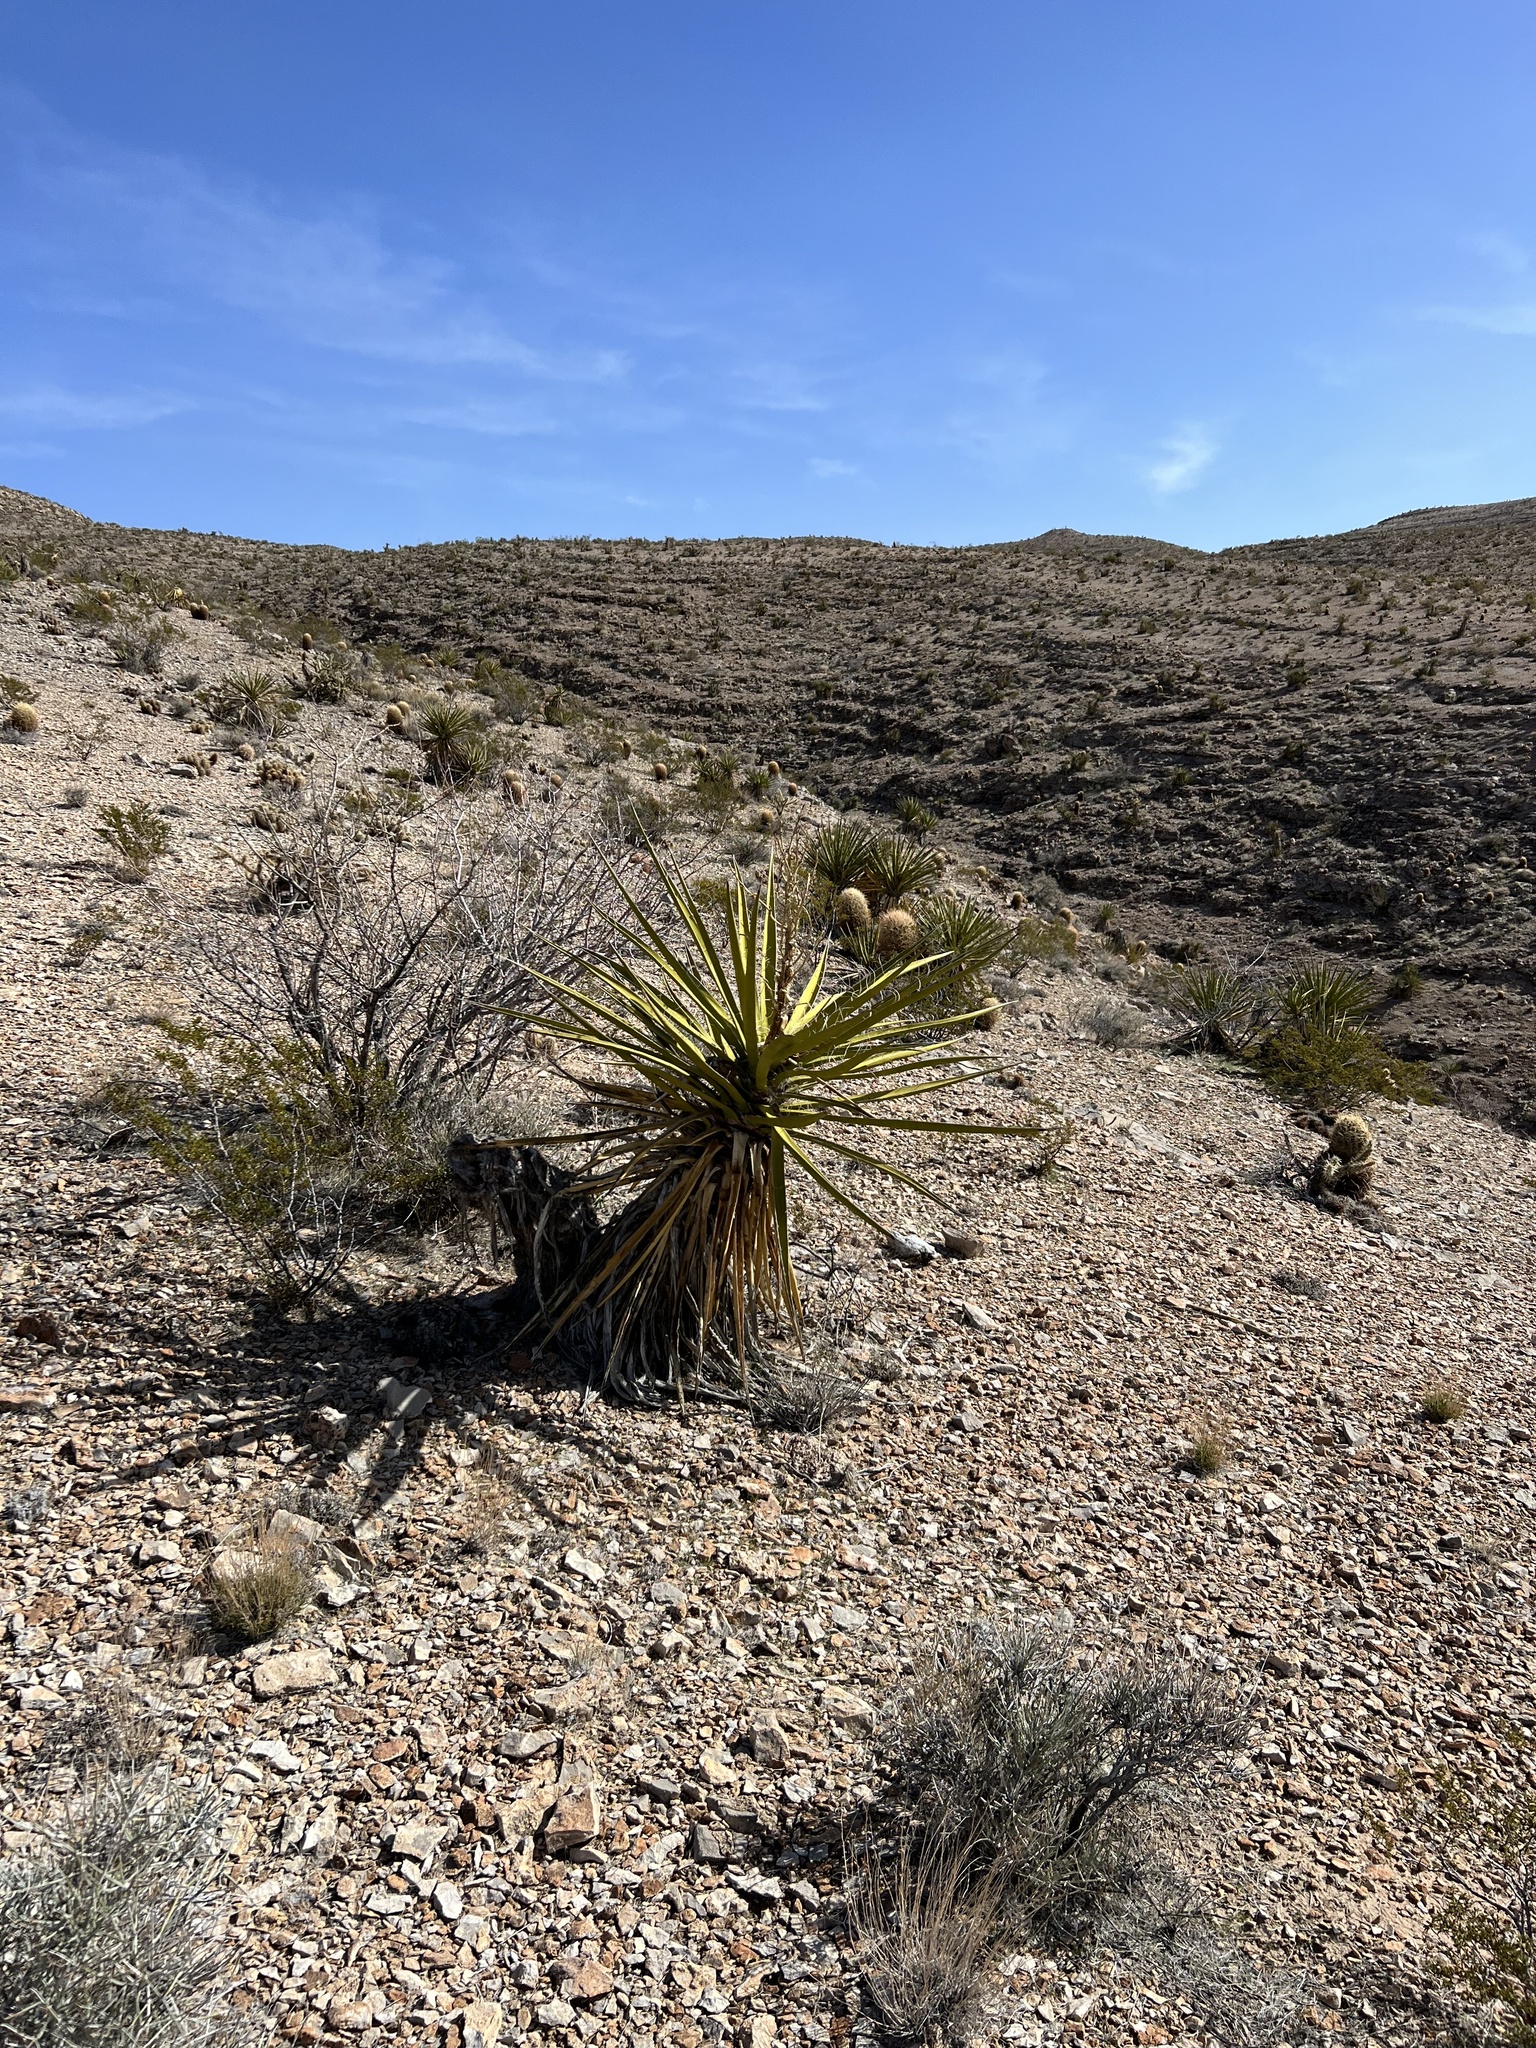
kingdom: Plantae
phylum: Tracheophyta
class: Liliopsida
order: Asparagales
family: Asparagaceae
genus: Yucca
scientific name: Yucca schidigera
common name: Mojave yucca
